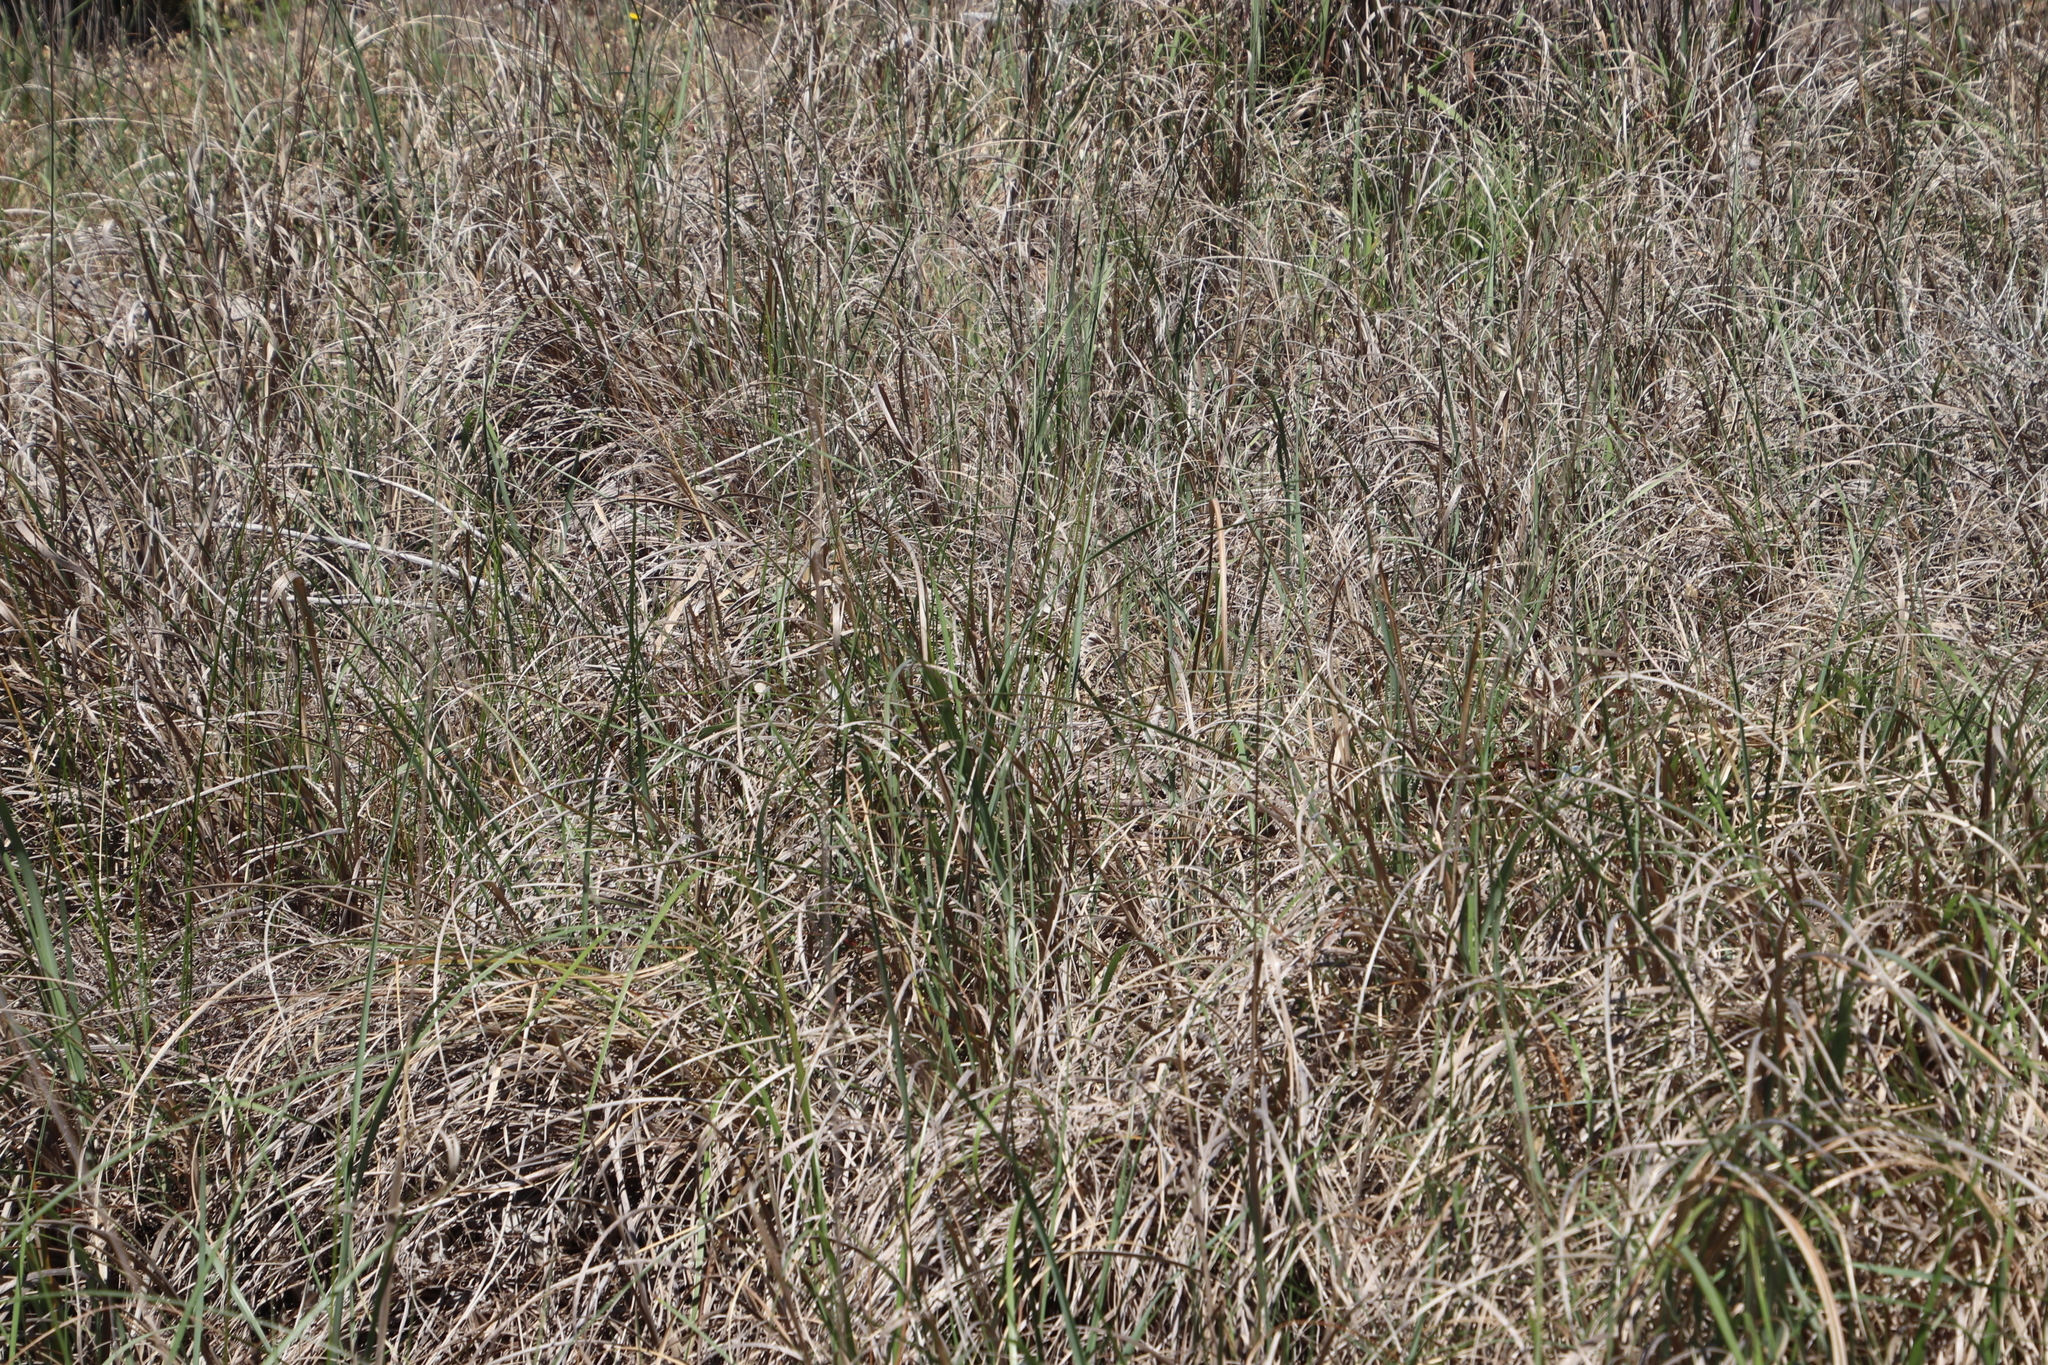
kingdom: Plantae
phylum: Tracheophyta
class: Liliopsida
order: Poales
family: Poaceae
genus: Cenchrus
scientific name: Cenchrus caudatus
